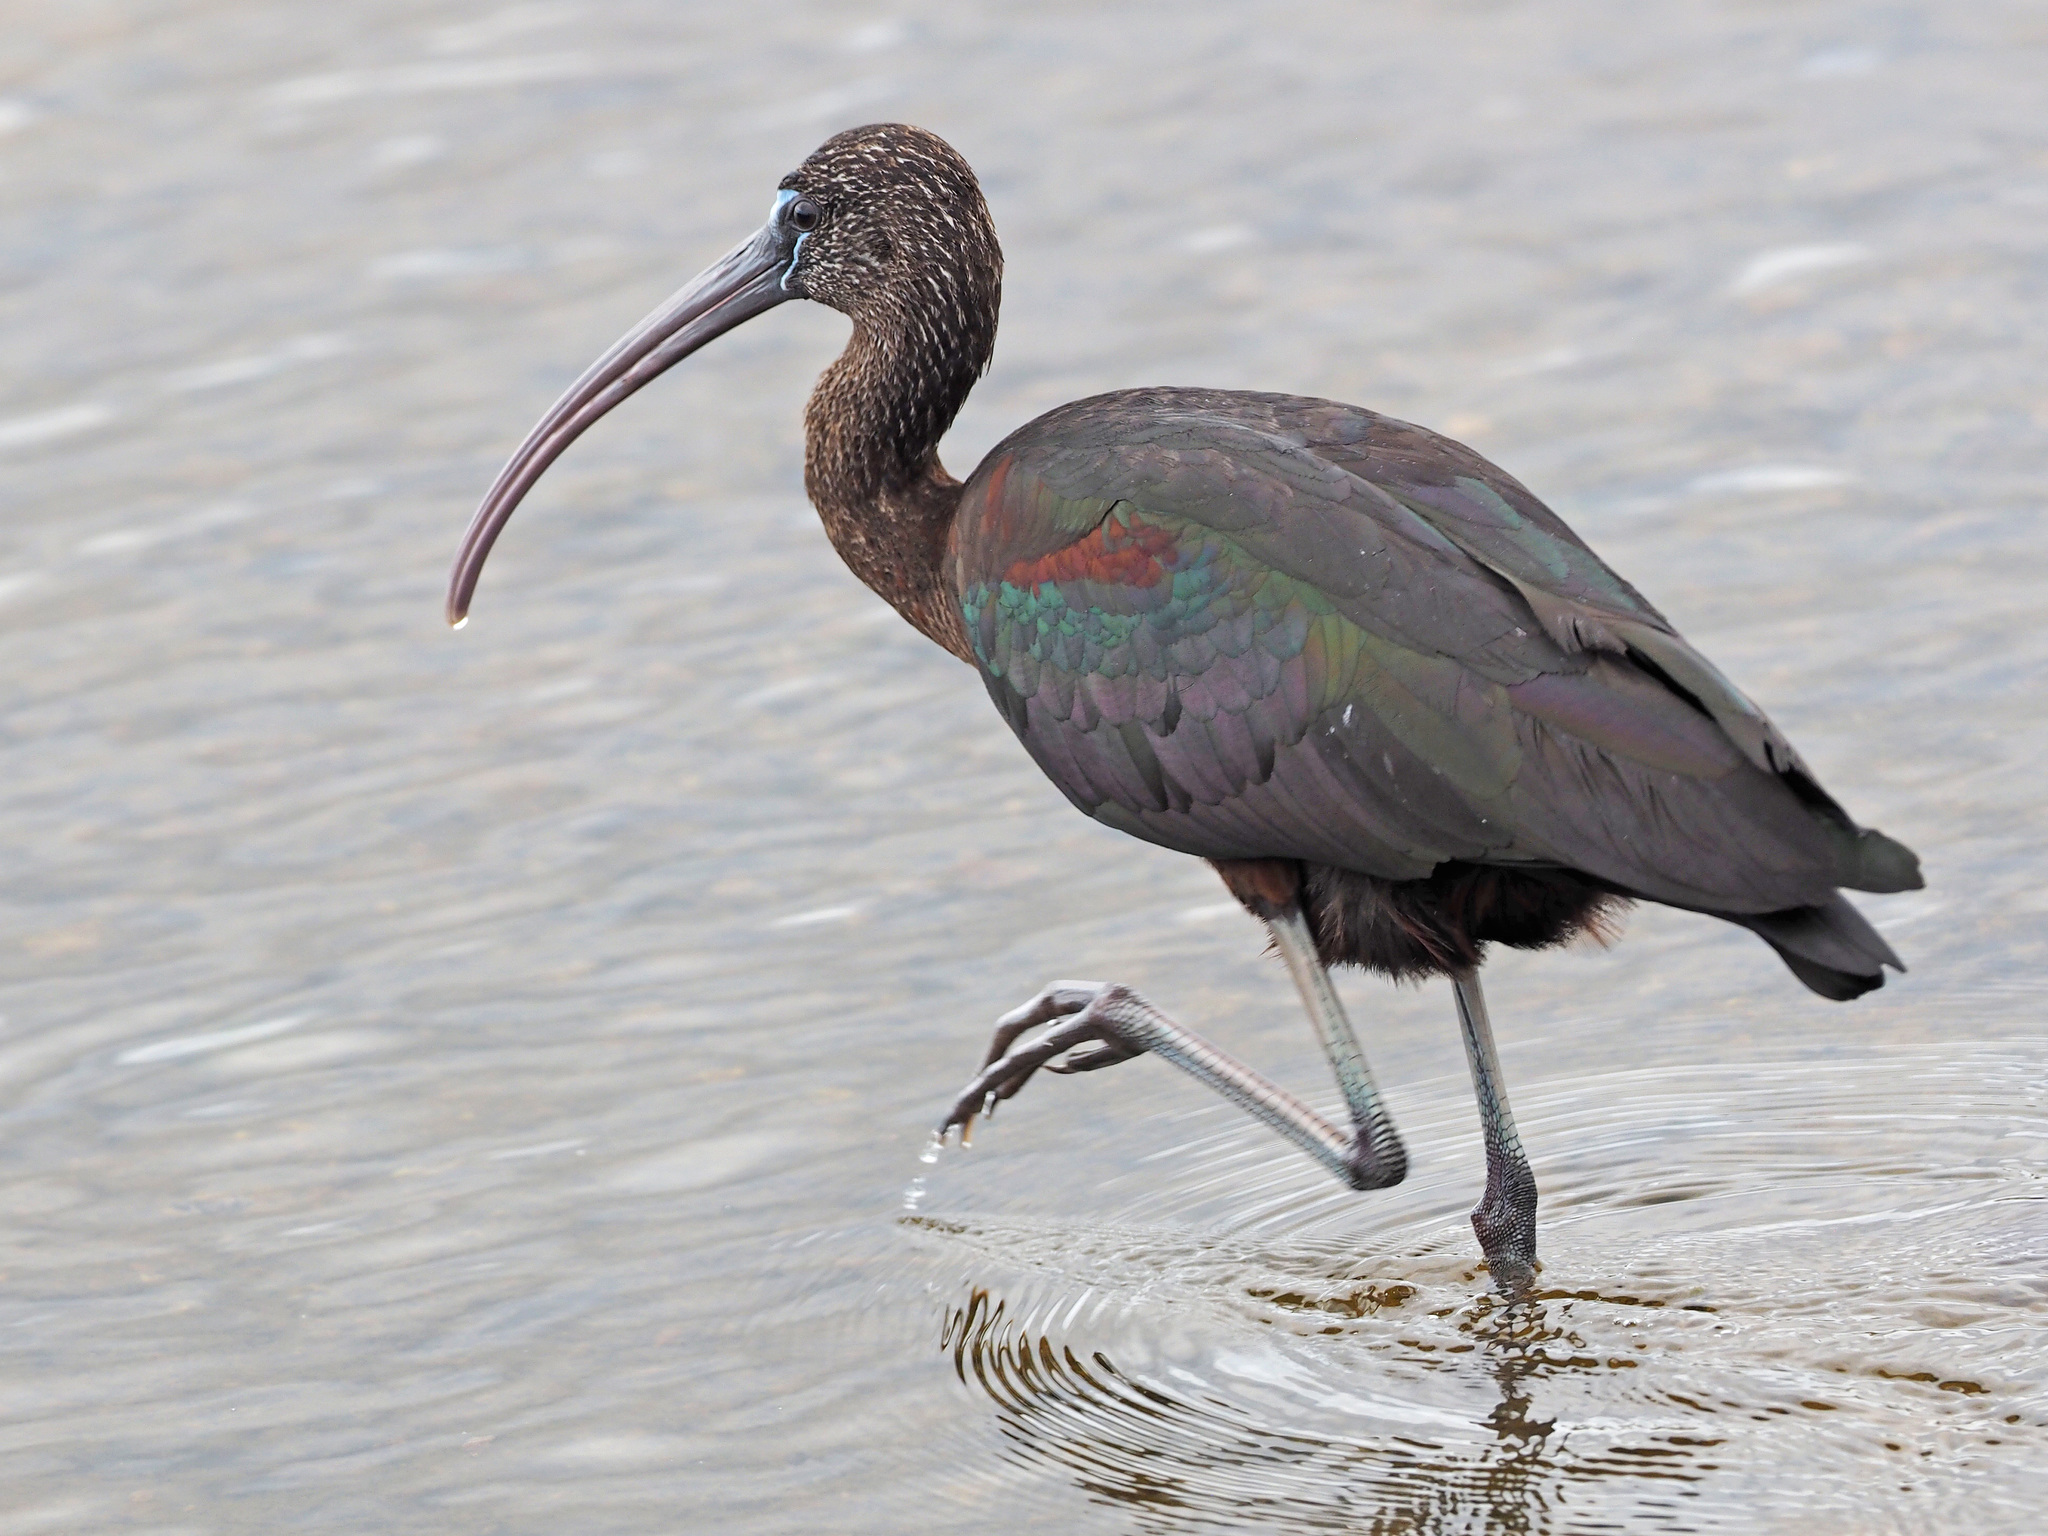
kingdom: Animalia
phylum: Chordata
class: Aves
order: Pelecaniformes
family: Threskiornithidae
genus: Plegadis
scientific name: Plegadis falcinellus
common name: Glossy ibis
